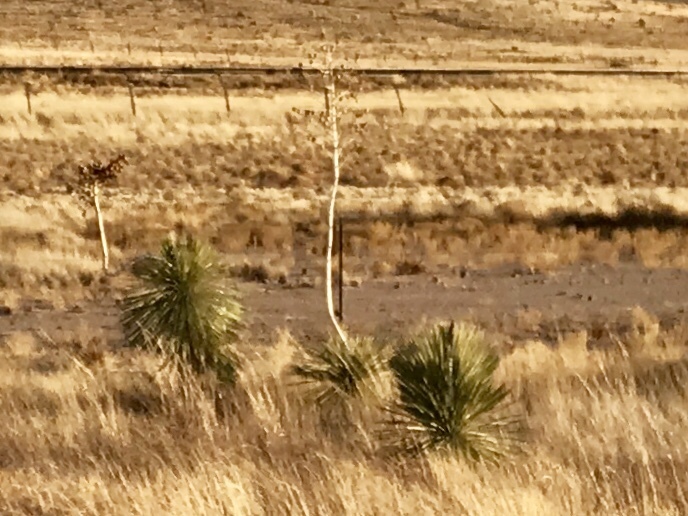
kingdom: Plantae
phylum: Tracheophyta
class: Liliopsida
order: Asparagales
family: Asparagaceae
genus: Yucca
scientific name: Yucca elata
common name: Palmella
